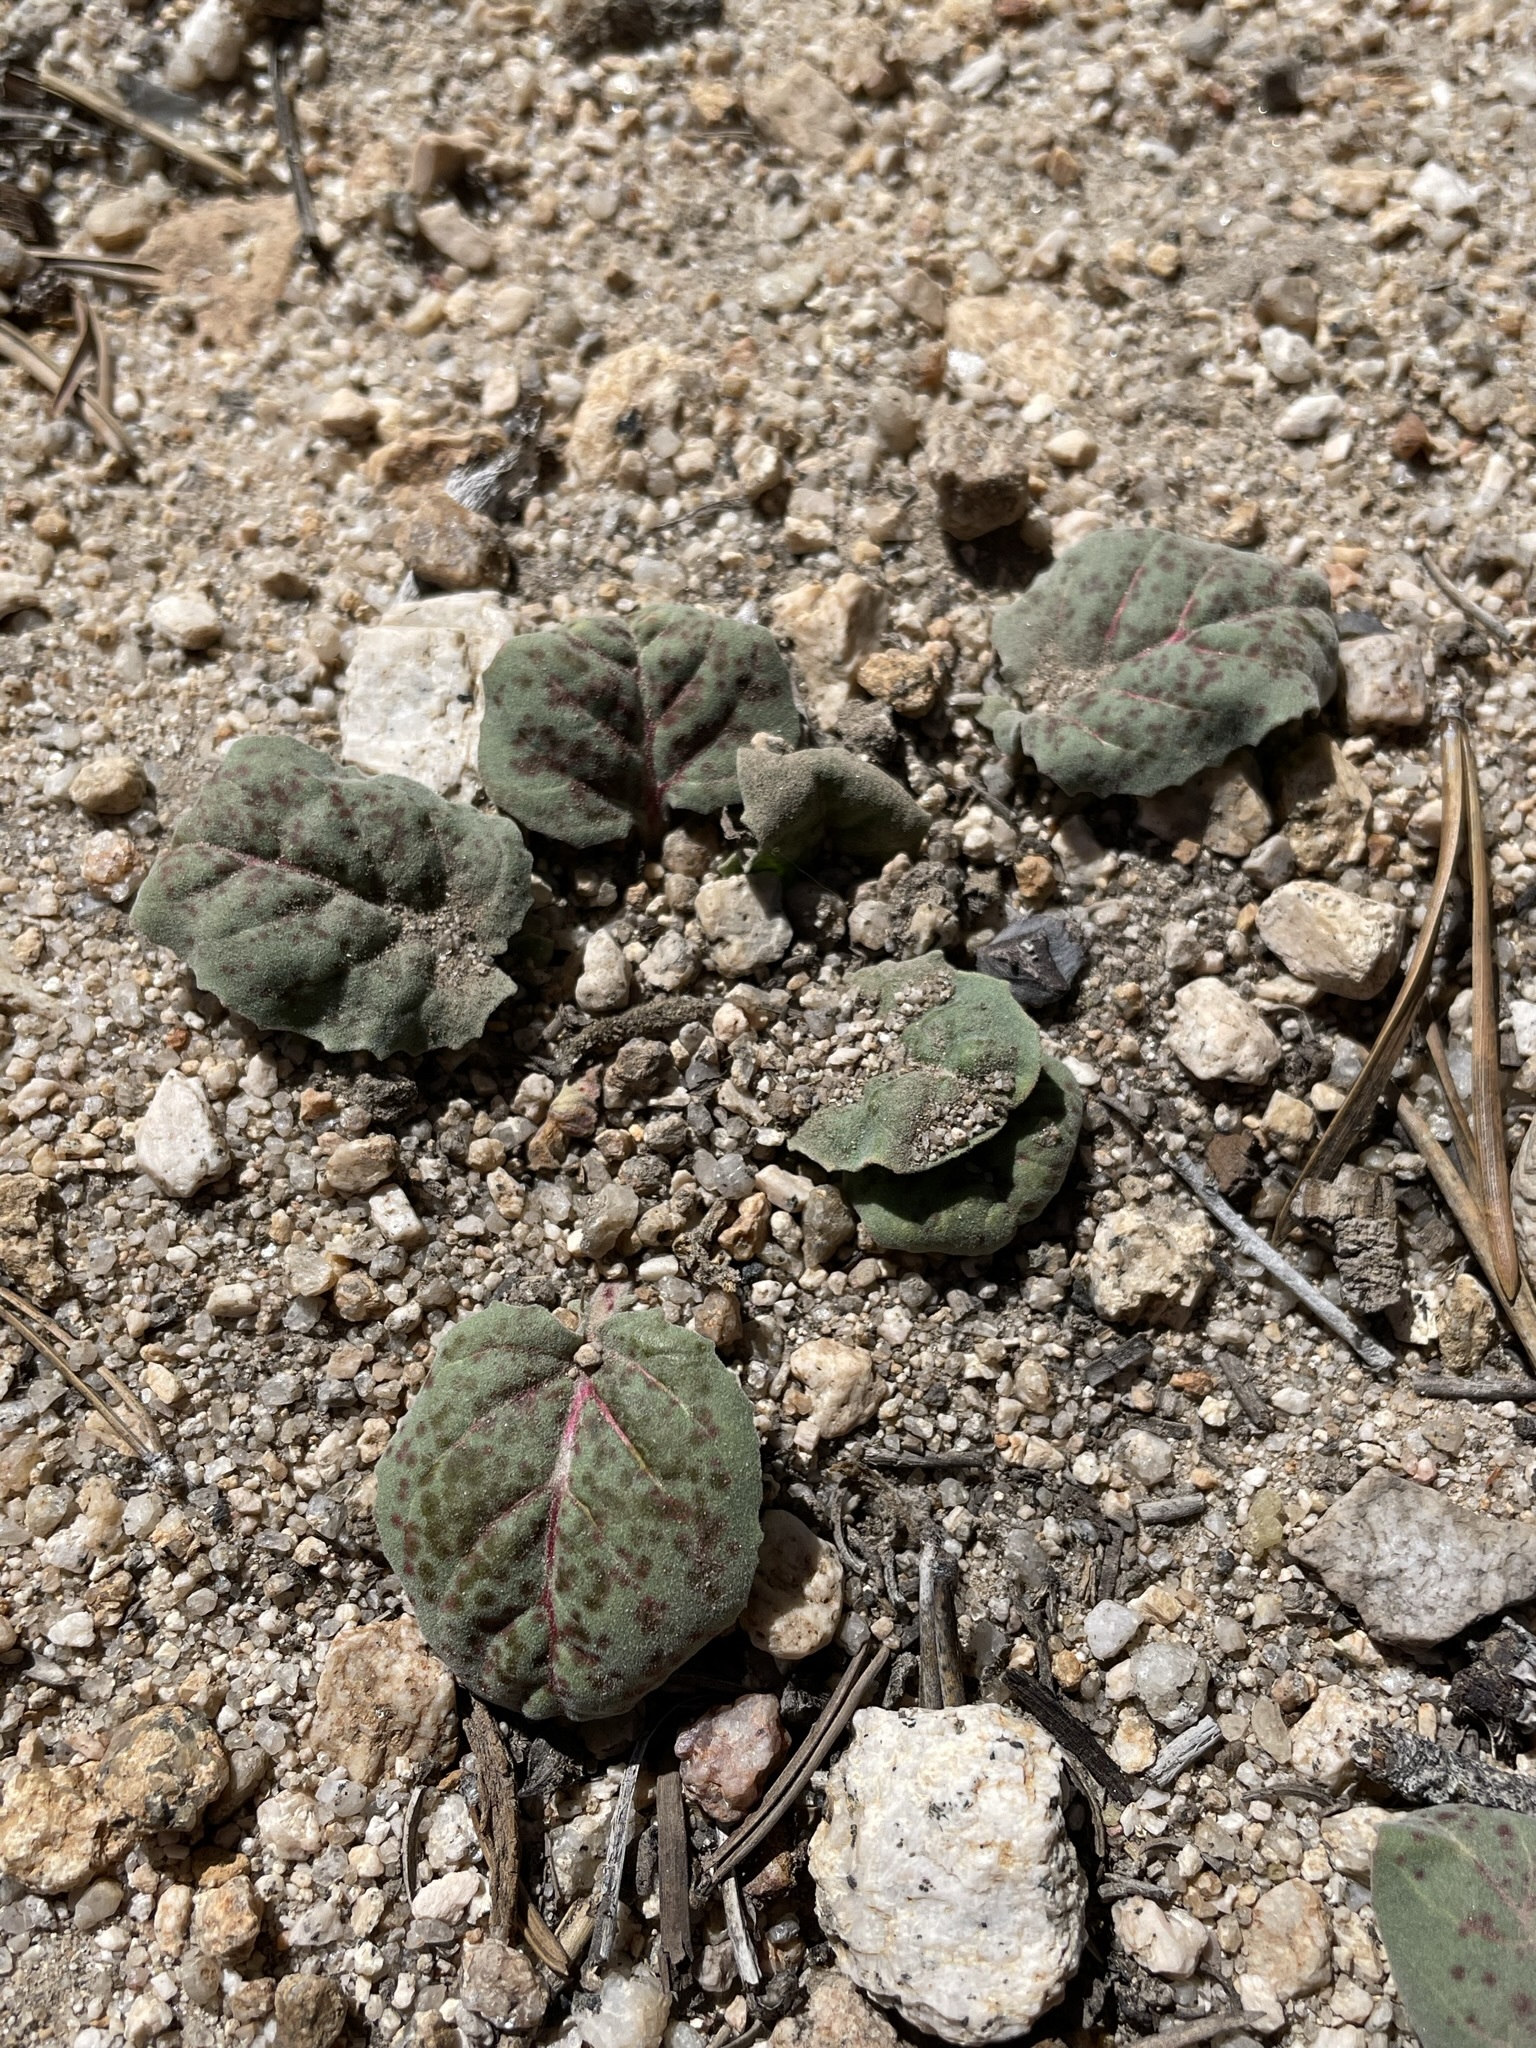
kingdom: Plantae
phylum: Tracheophyta
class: Magnoliopsida
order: Myrtales
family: Onagraceae
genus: Oenothera
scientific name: Oenothera xylocarpa
